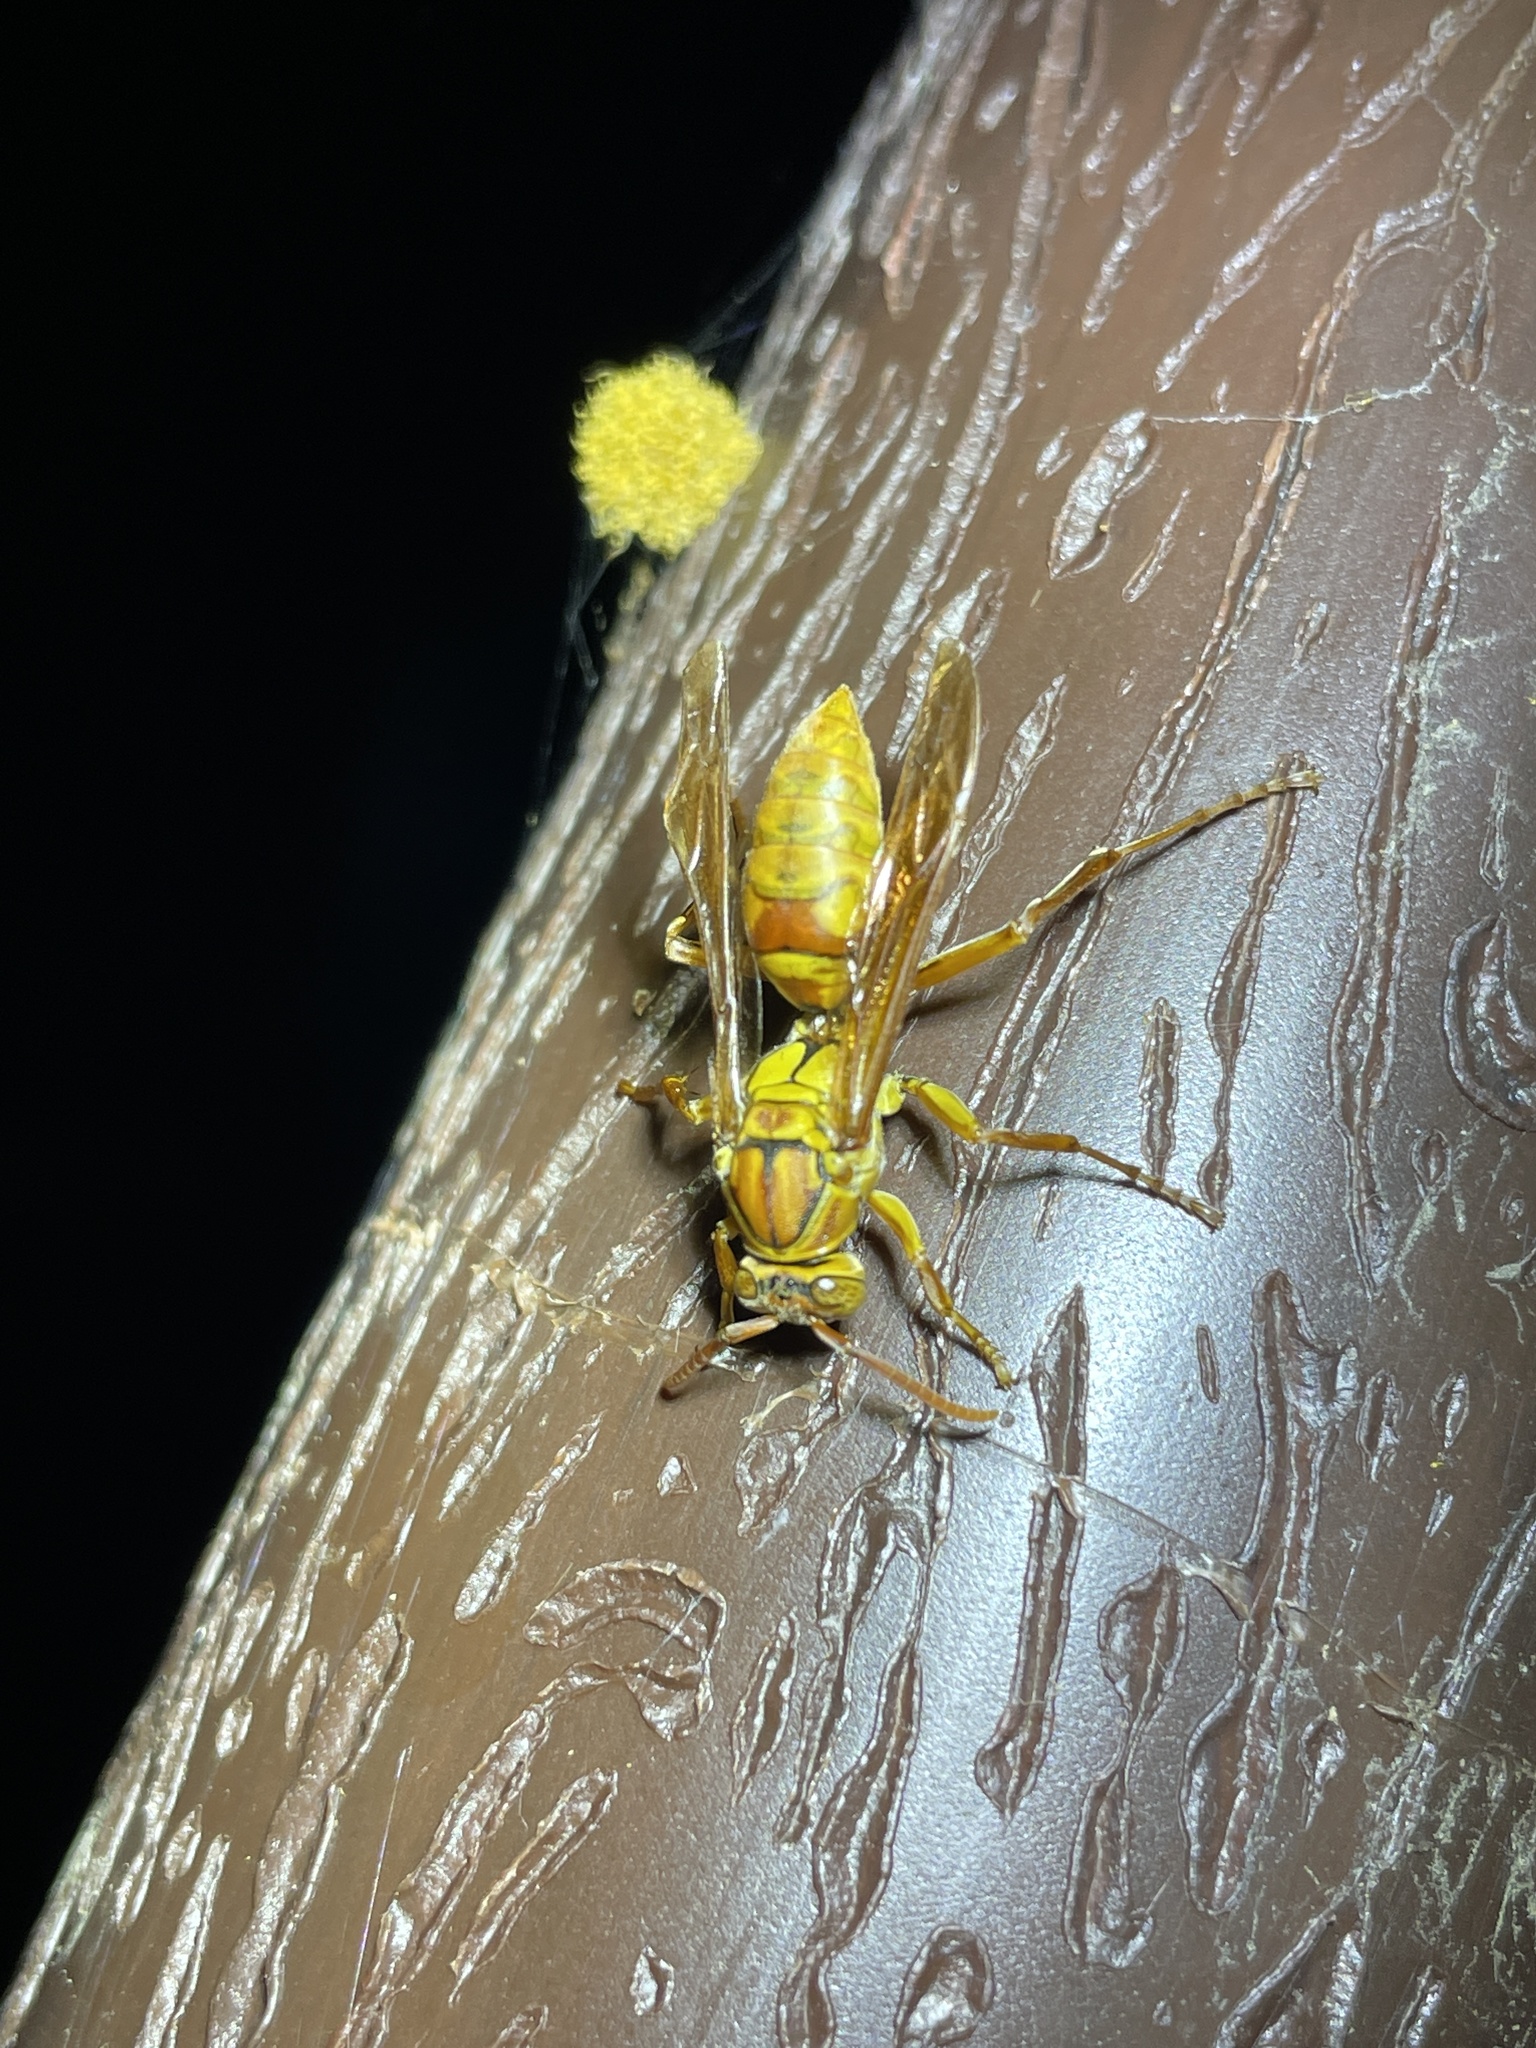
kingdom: Animalia
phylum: Arthropoda
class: Insecta
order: Hymenoptera
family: Eumenidae
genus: Polistes
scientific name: Polistes japonicus
